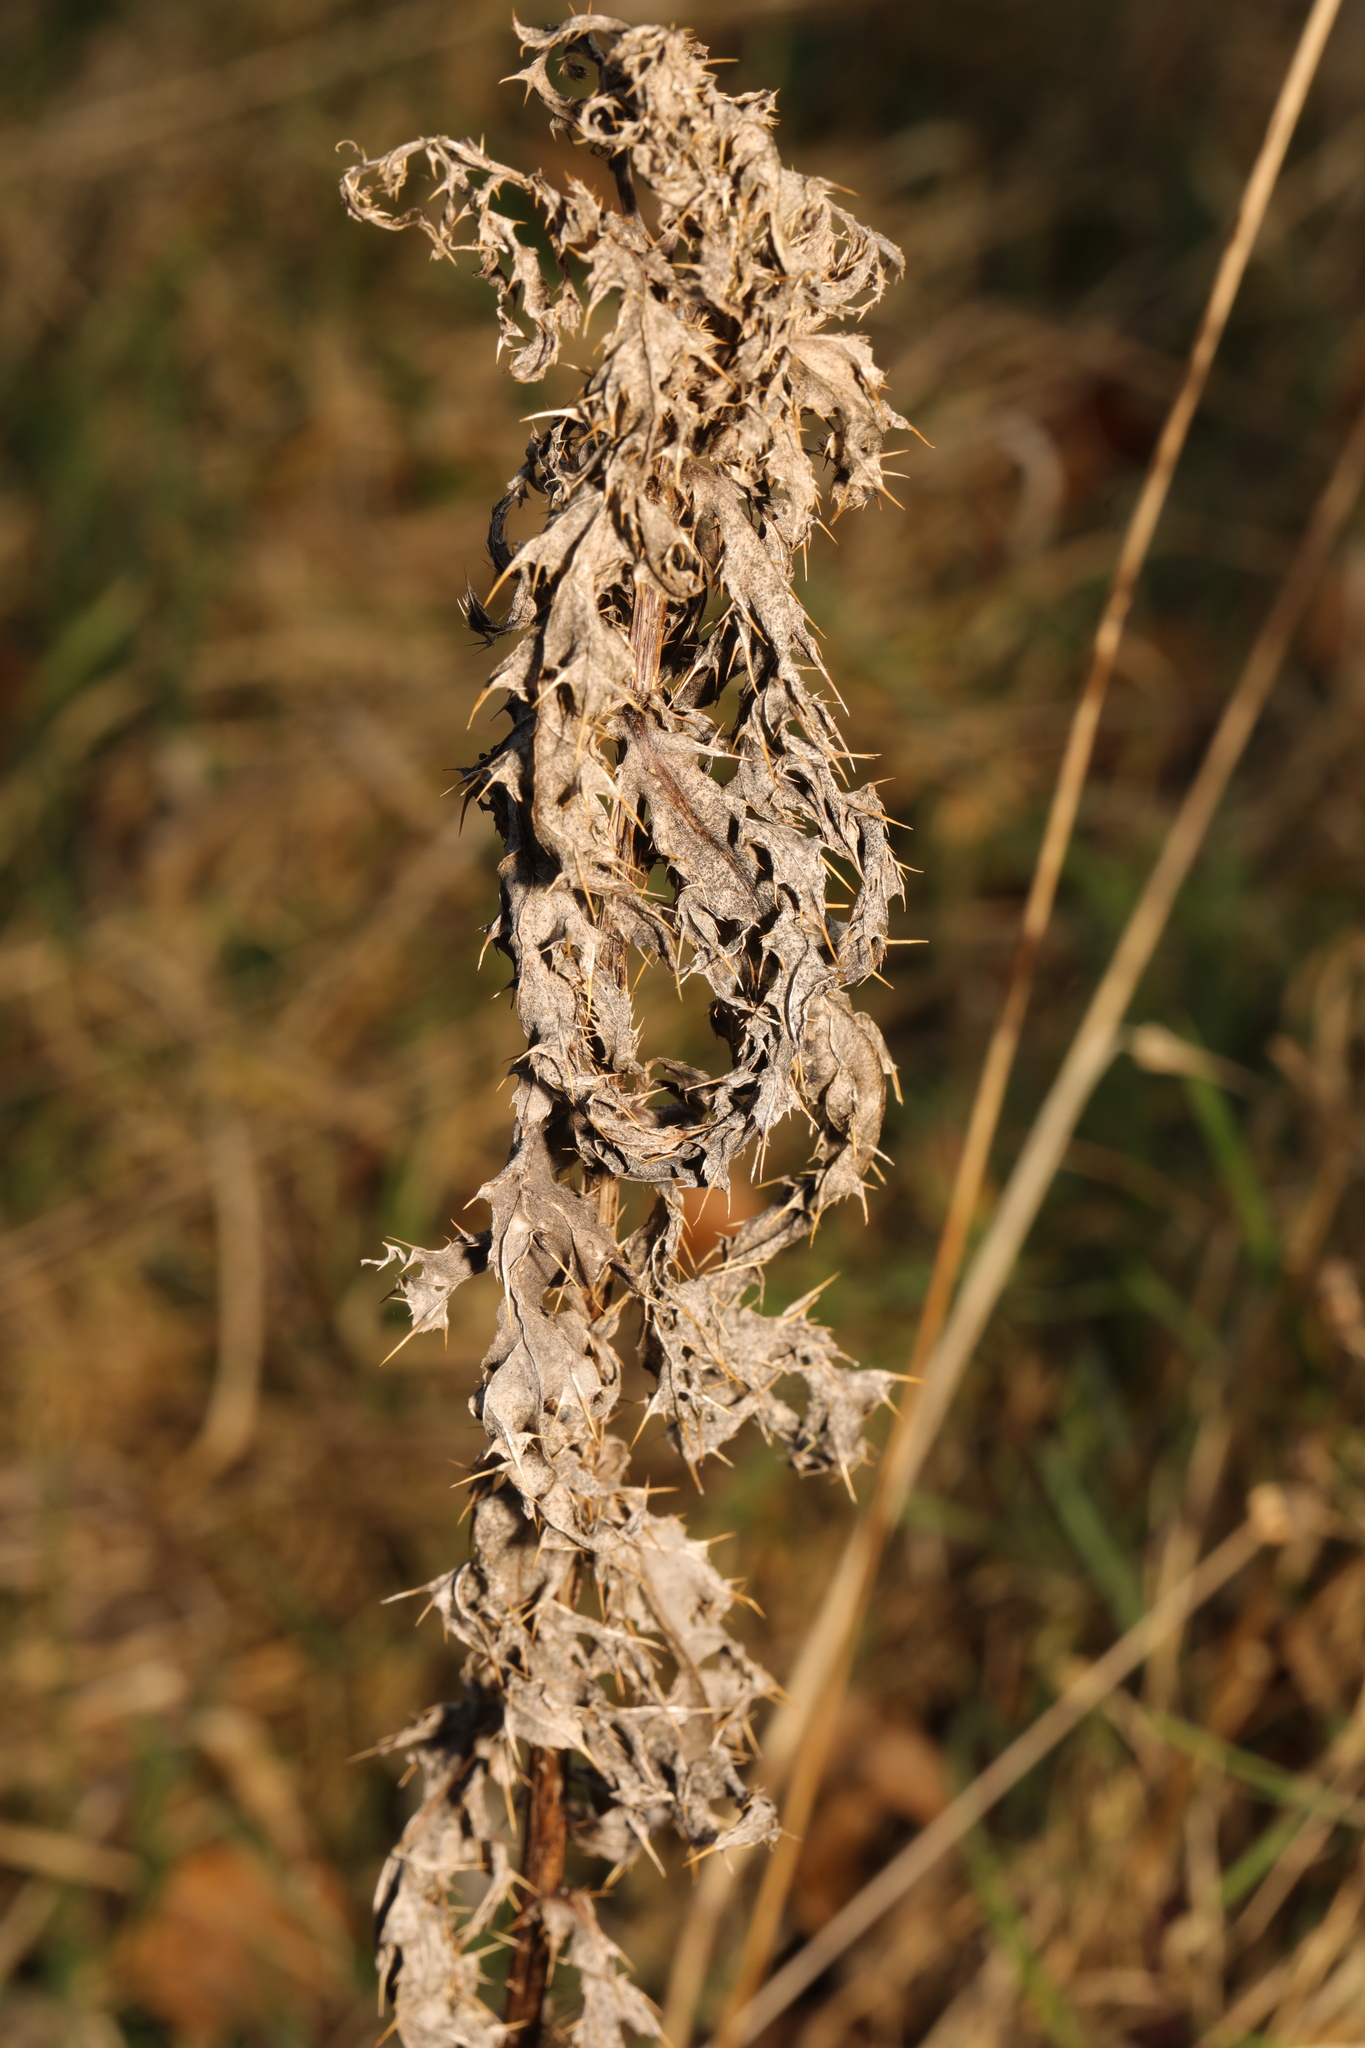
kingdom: Plantae
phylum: Tracheophyta
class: Magnoliopsida
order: Asterales
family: Asteraceae
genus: Cirsium
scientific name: Cirsium arvense
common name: Creeping thistle
